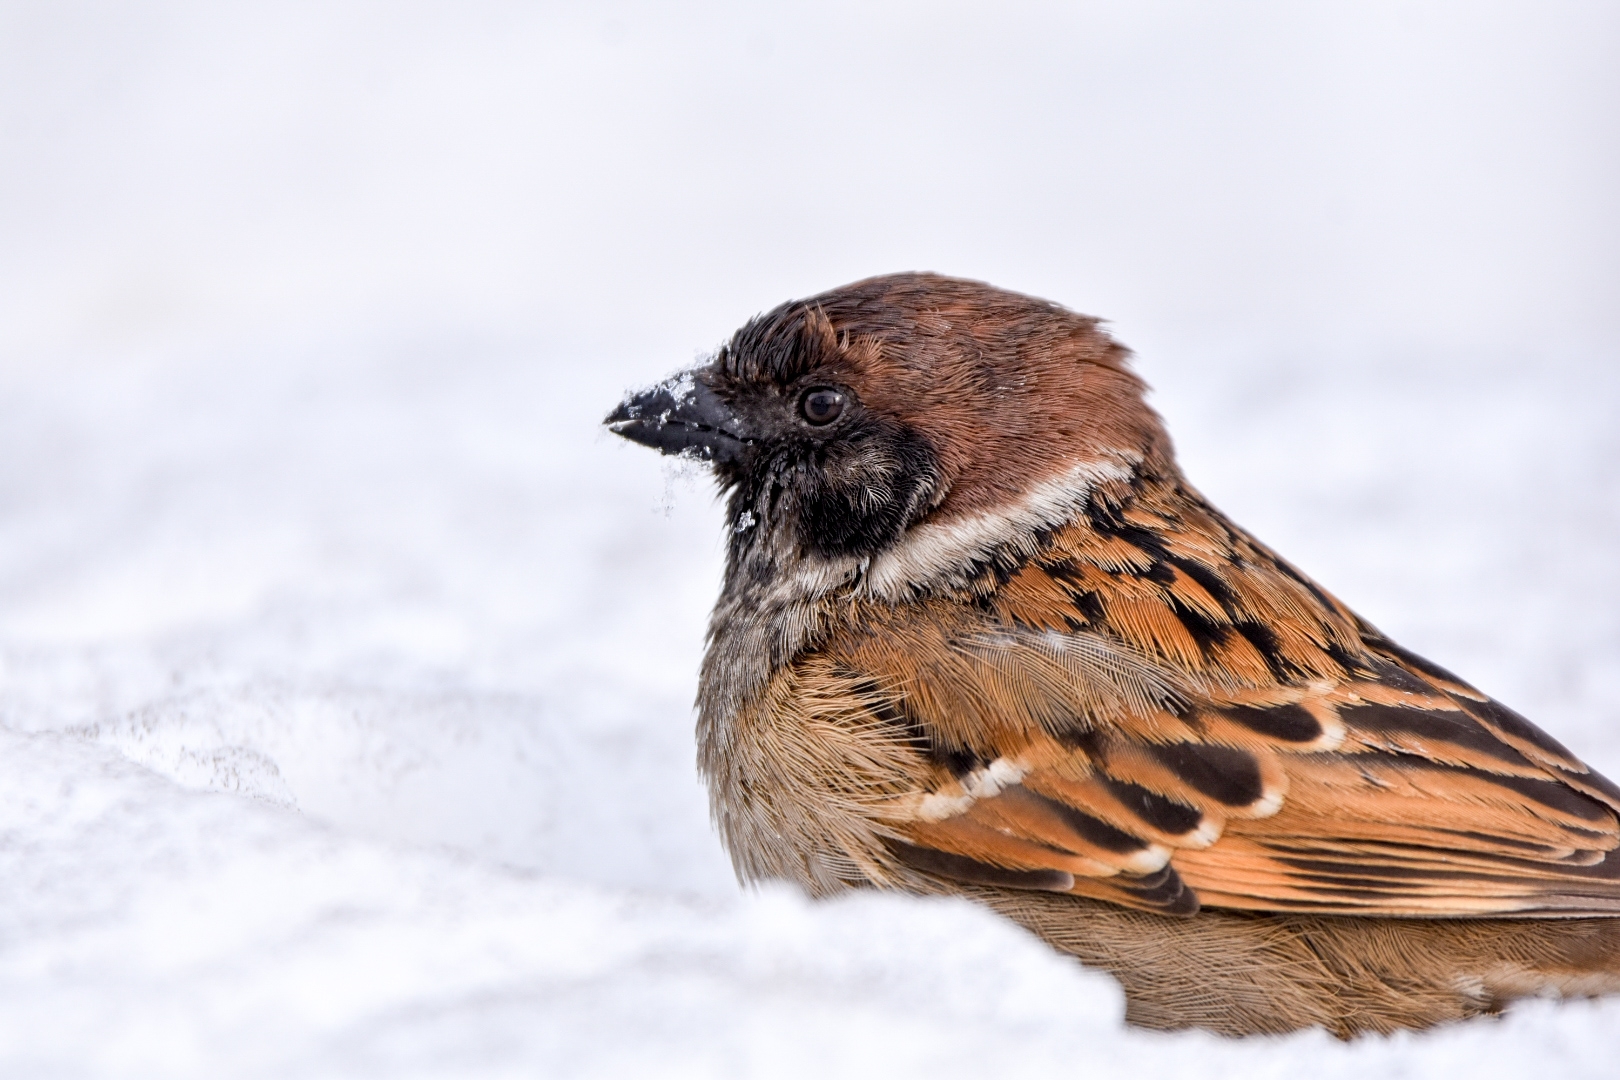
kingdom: Animalia
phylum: Chordata
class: Aves
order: Passeriformes
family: Passeridae
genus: Passer
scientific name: Passer montanus
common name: Eurasian tree sparrow
